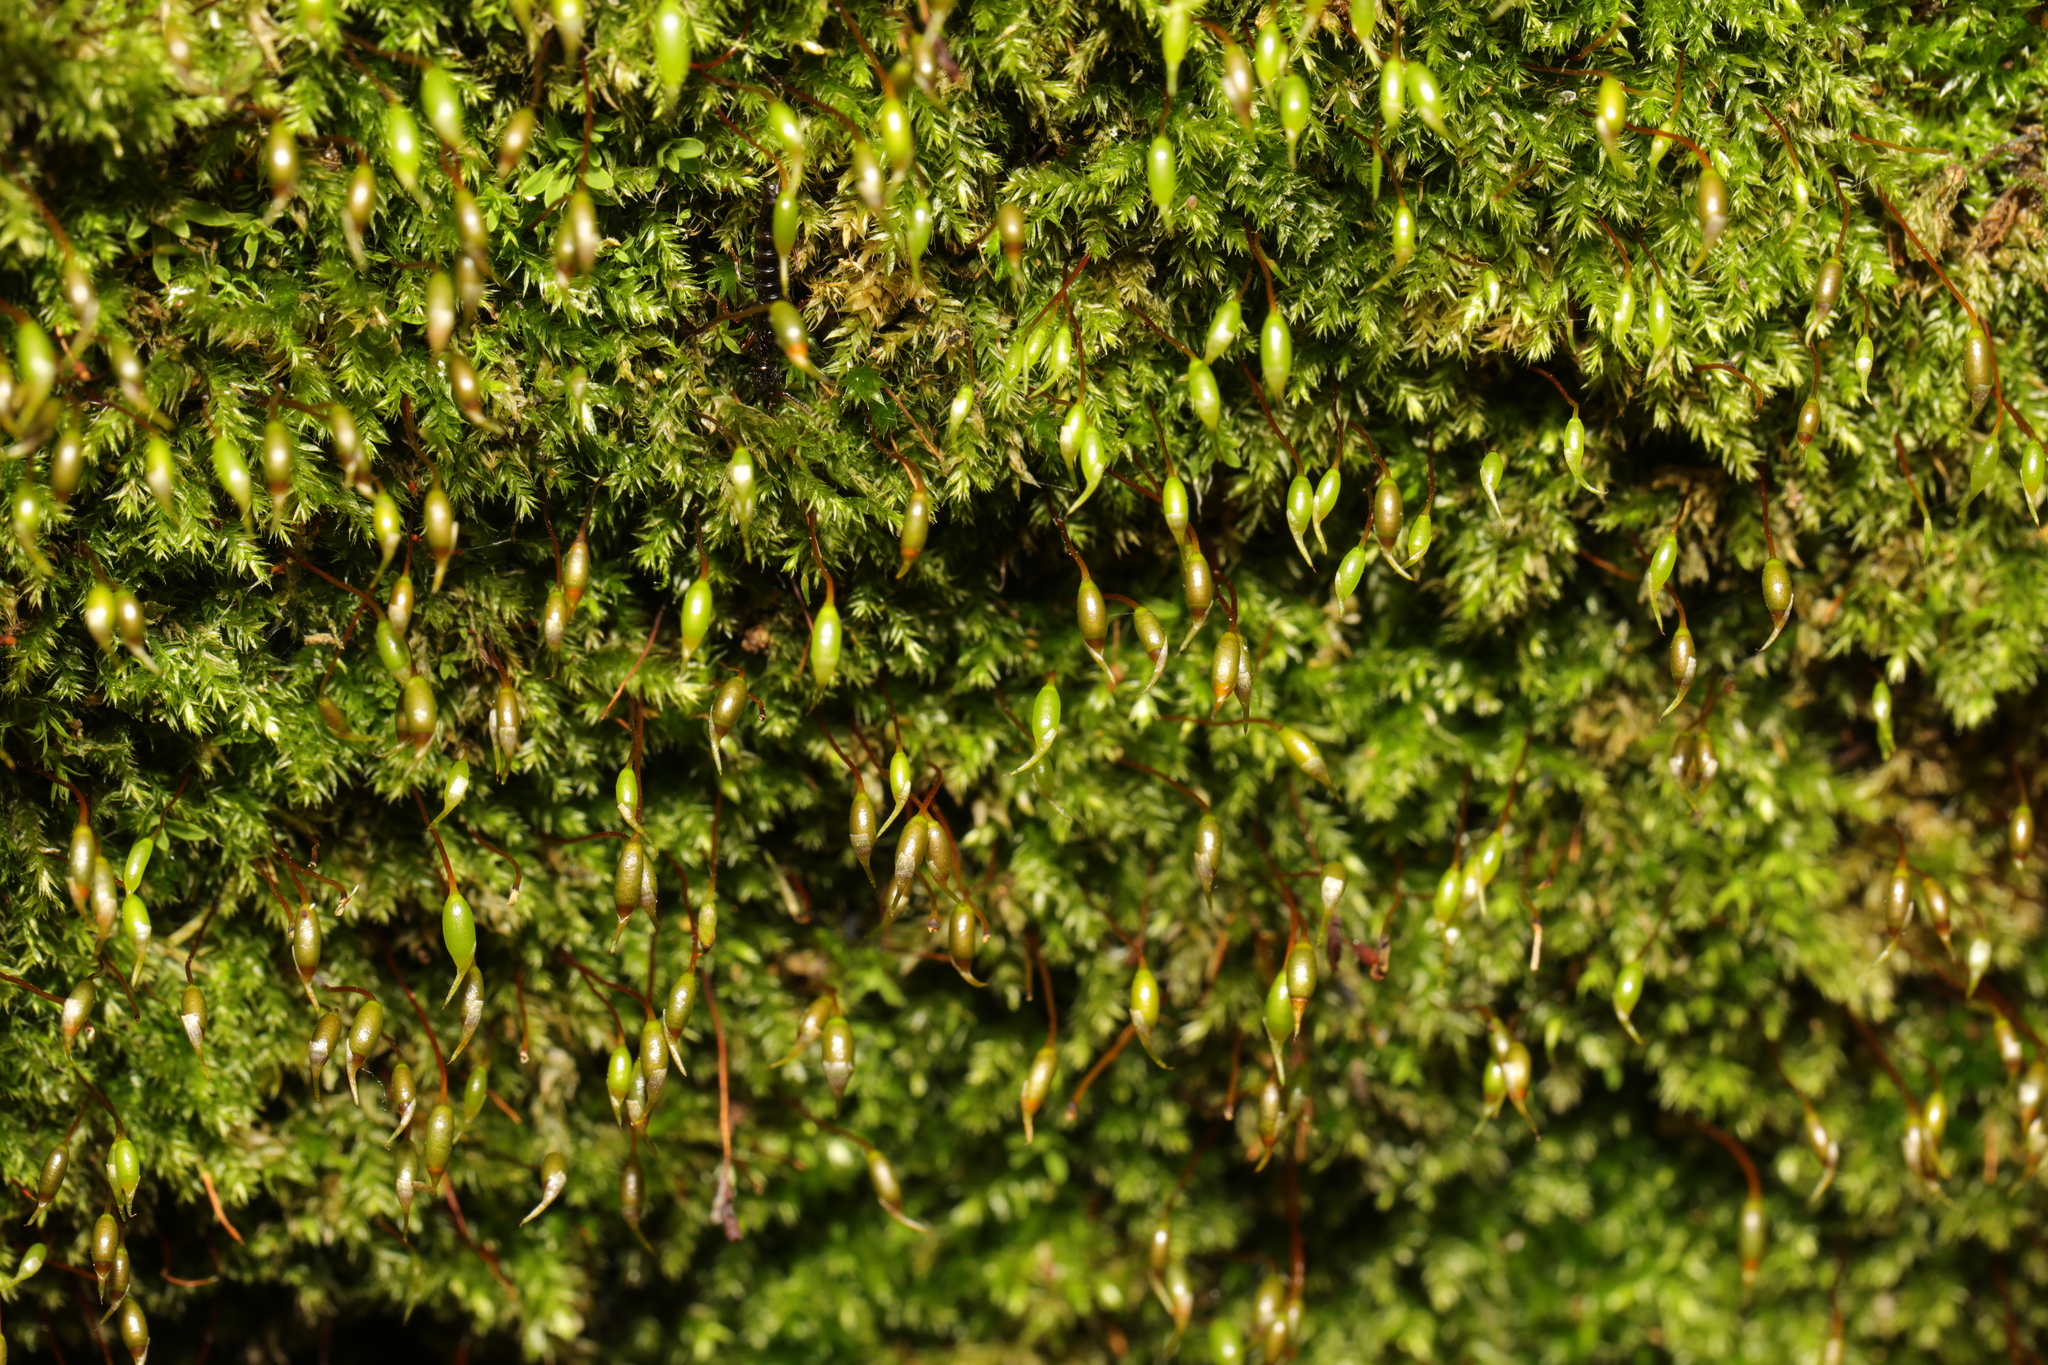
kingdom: Plantae
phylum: Bryophyta
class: Bryopsida
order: Hypnales
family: Brachytheciaceae
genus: Rhynchostegium
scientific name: Rhynchostegium confertum
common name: Clustered feather-moss
